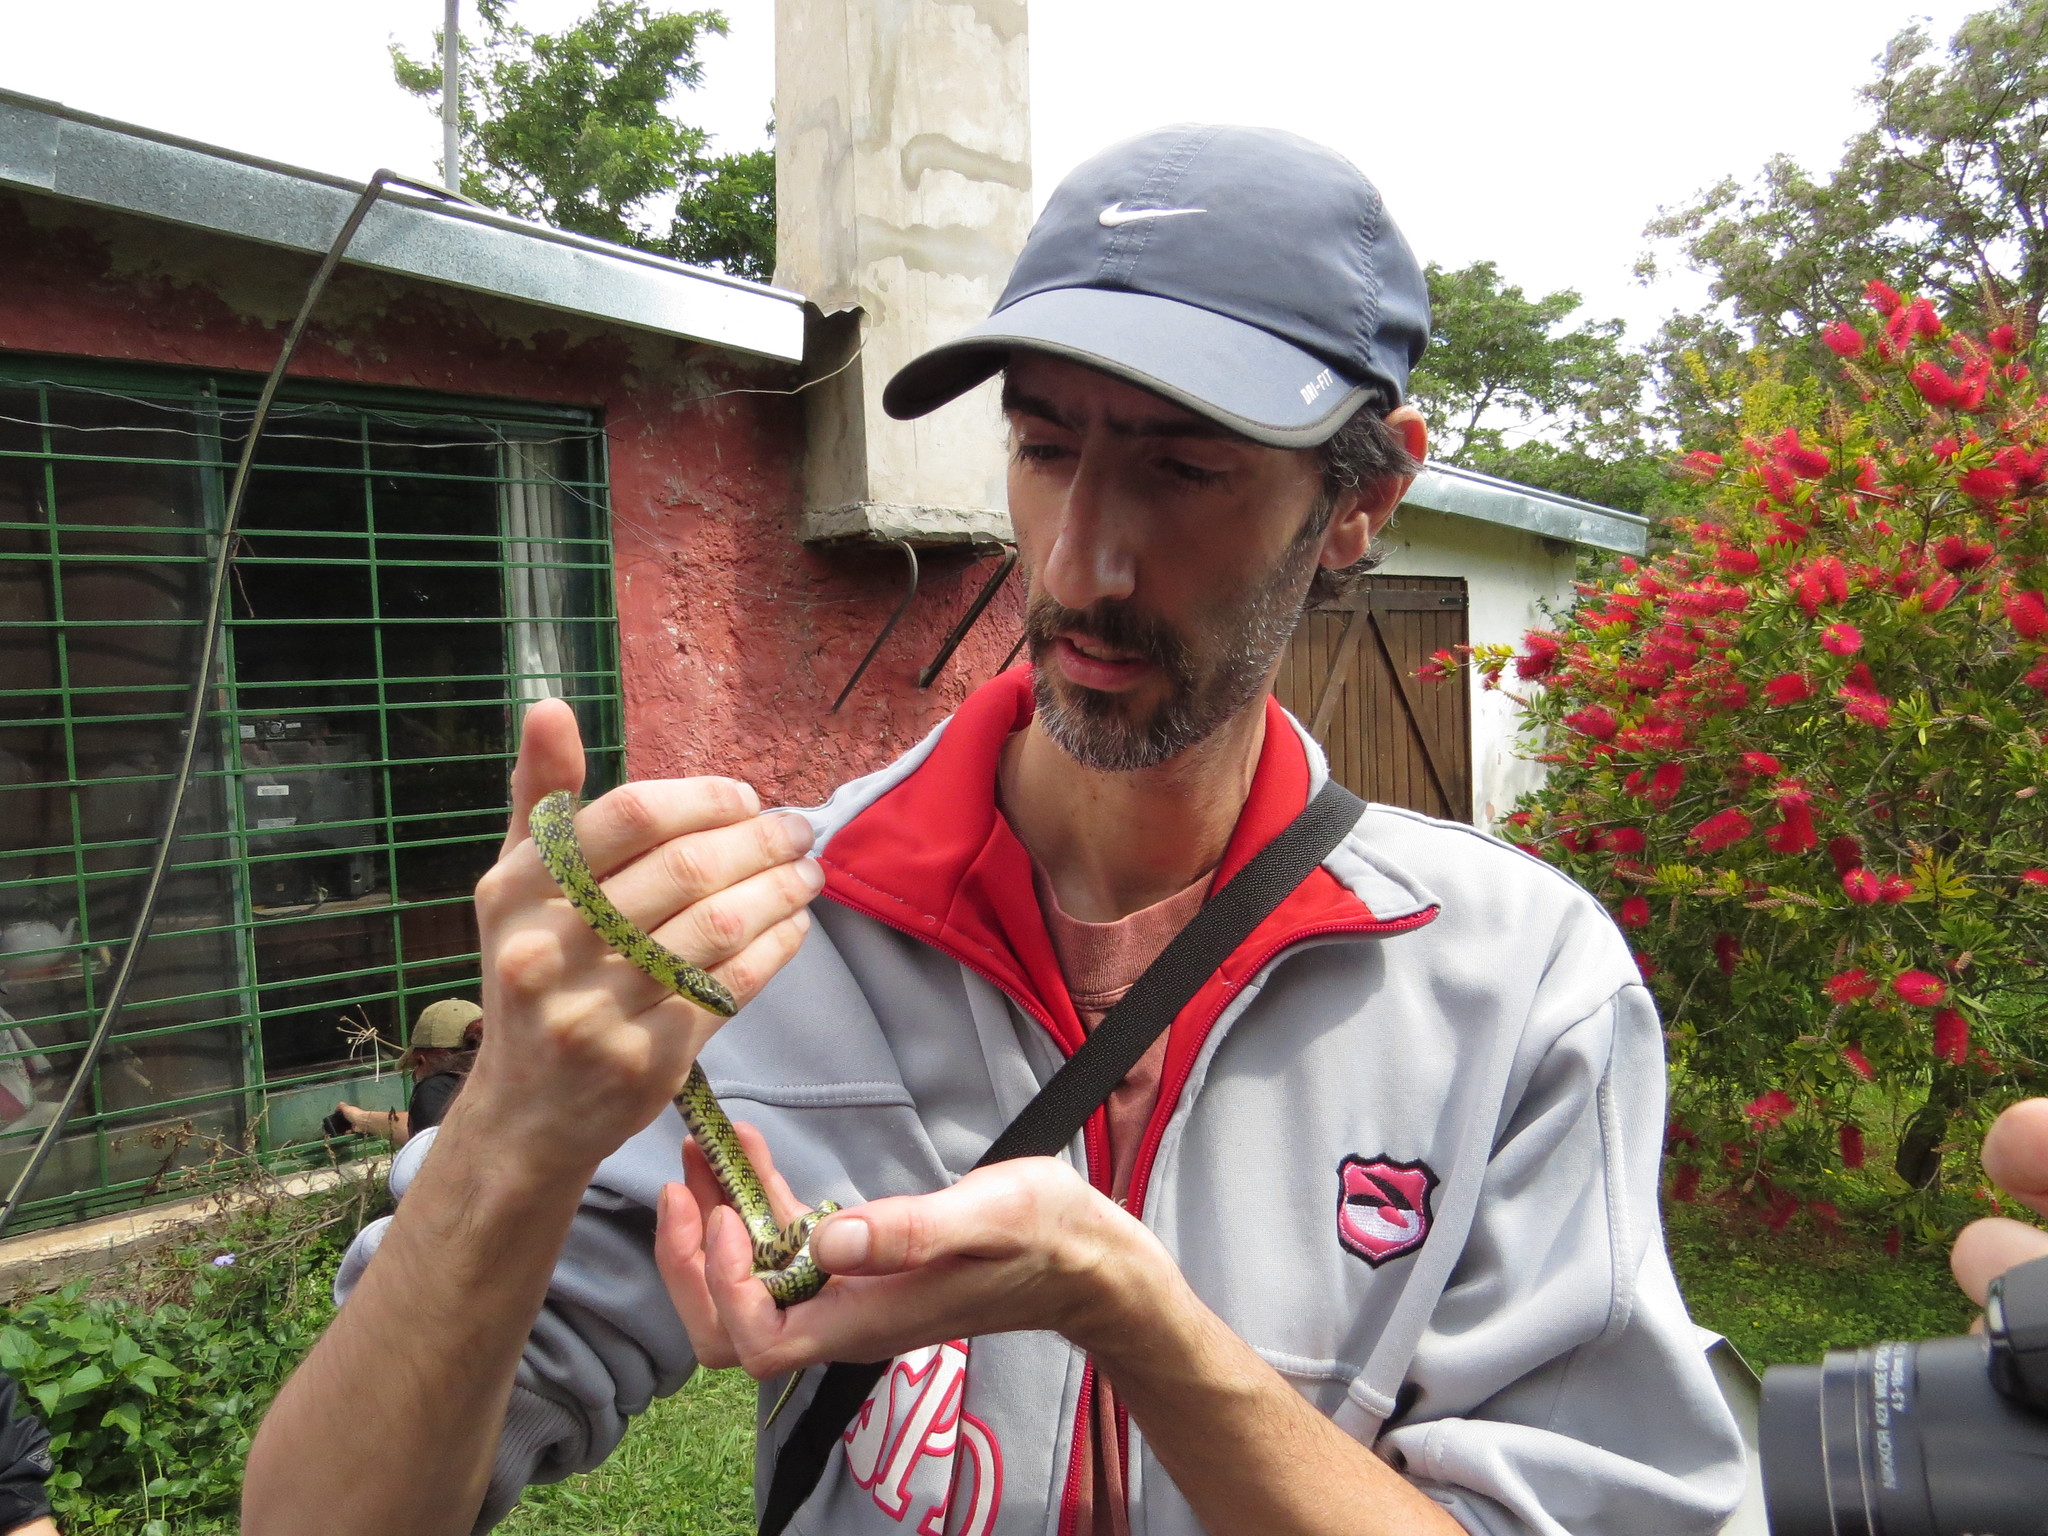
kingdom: Animalia
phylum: Chordata
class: Squamata
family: Colubridae
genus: Erythrolamprus
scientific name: Erythrolamprus poecilogyrus
